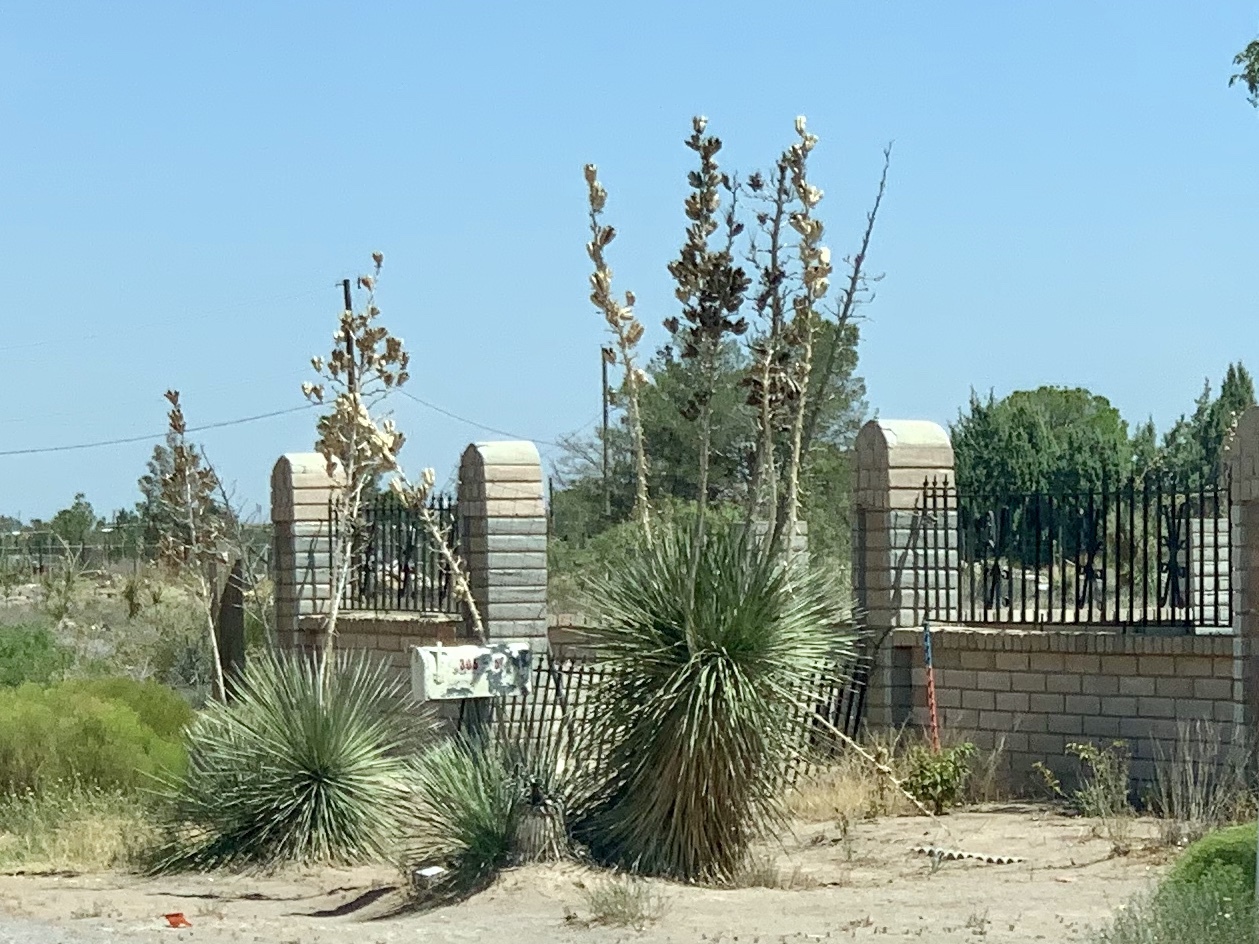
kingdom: Plantae
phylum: Tracheophyta
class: Liliopsida
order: Asparagales
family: Asparagaceae
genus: Yucca
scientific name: Yucca elata
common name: Palmella
